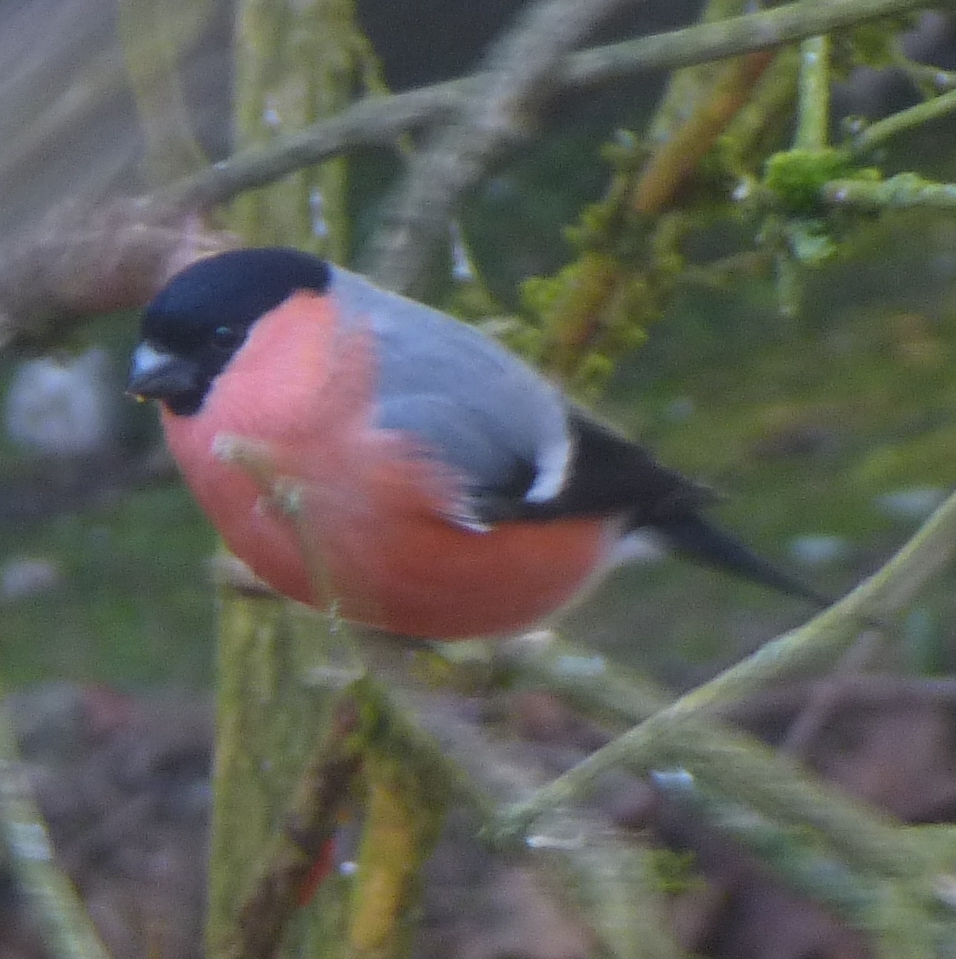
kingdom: Animalia
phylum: Chordata
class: Aves
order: Passeriformes
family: Fringillidae
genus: Pyrrhula
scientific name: Pyrrhula pyrrhula
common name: Eurasian bullfinch
